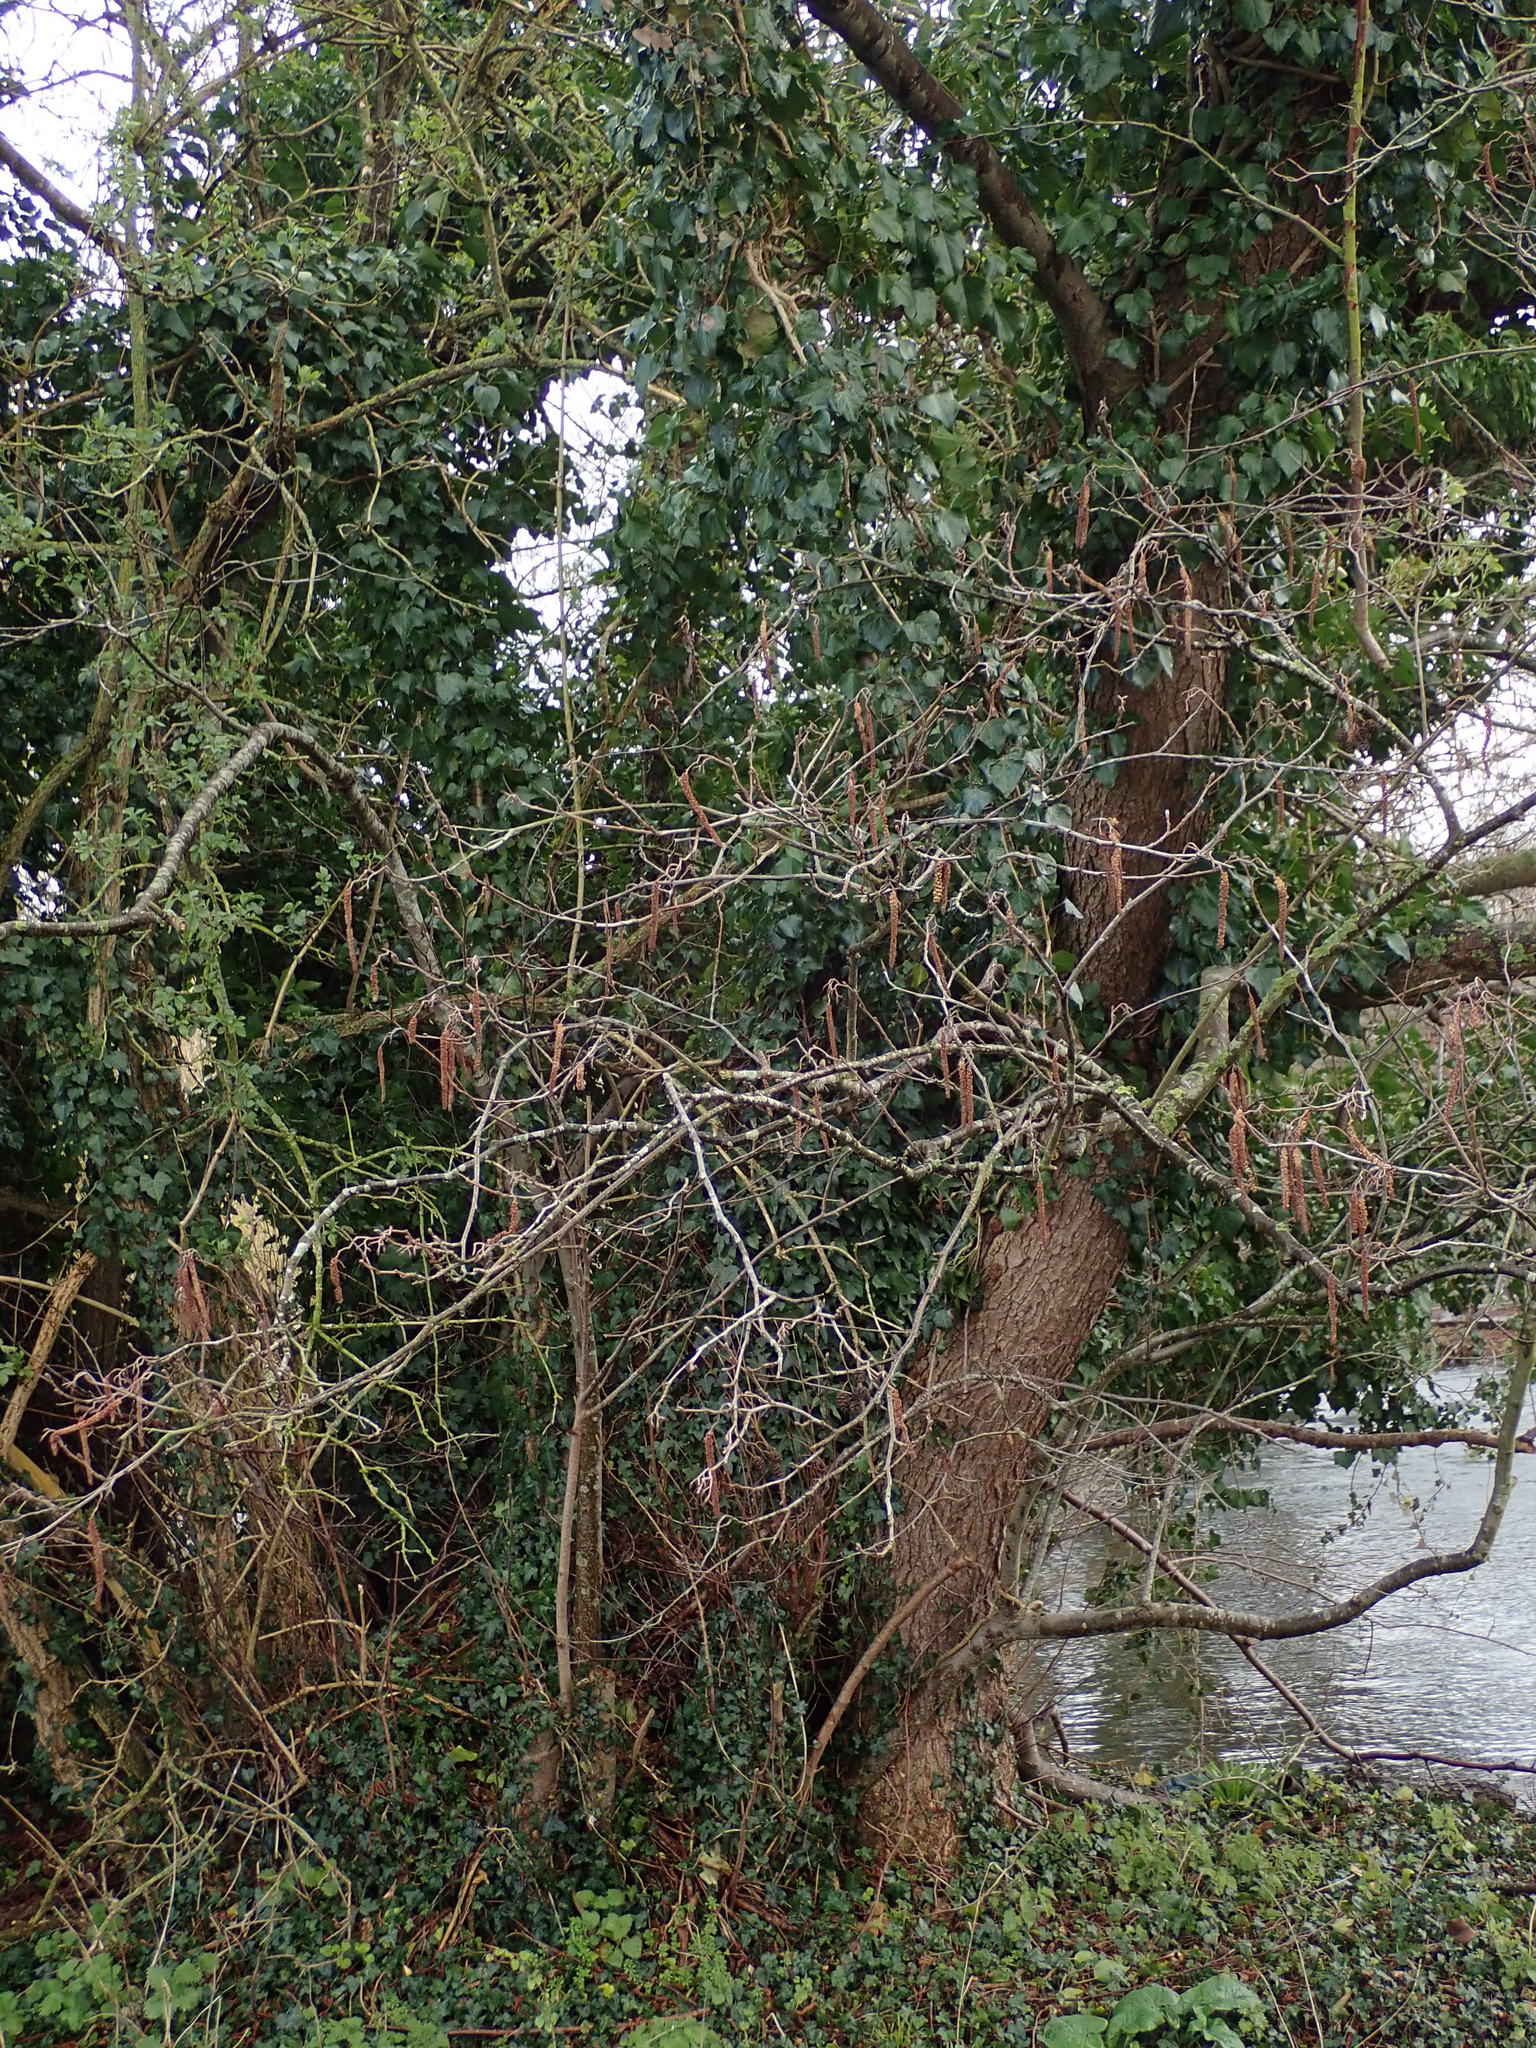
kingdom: Plantae
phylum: Tracheophyta
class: Magnoliopsida
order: Fagales
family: Betulaceae
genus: Alnus
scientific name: Alnus glutinosa
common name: Black alder
